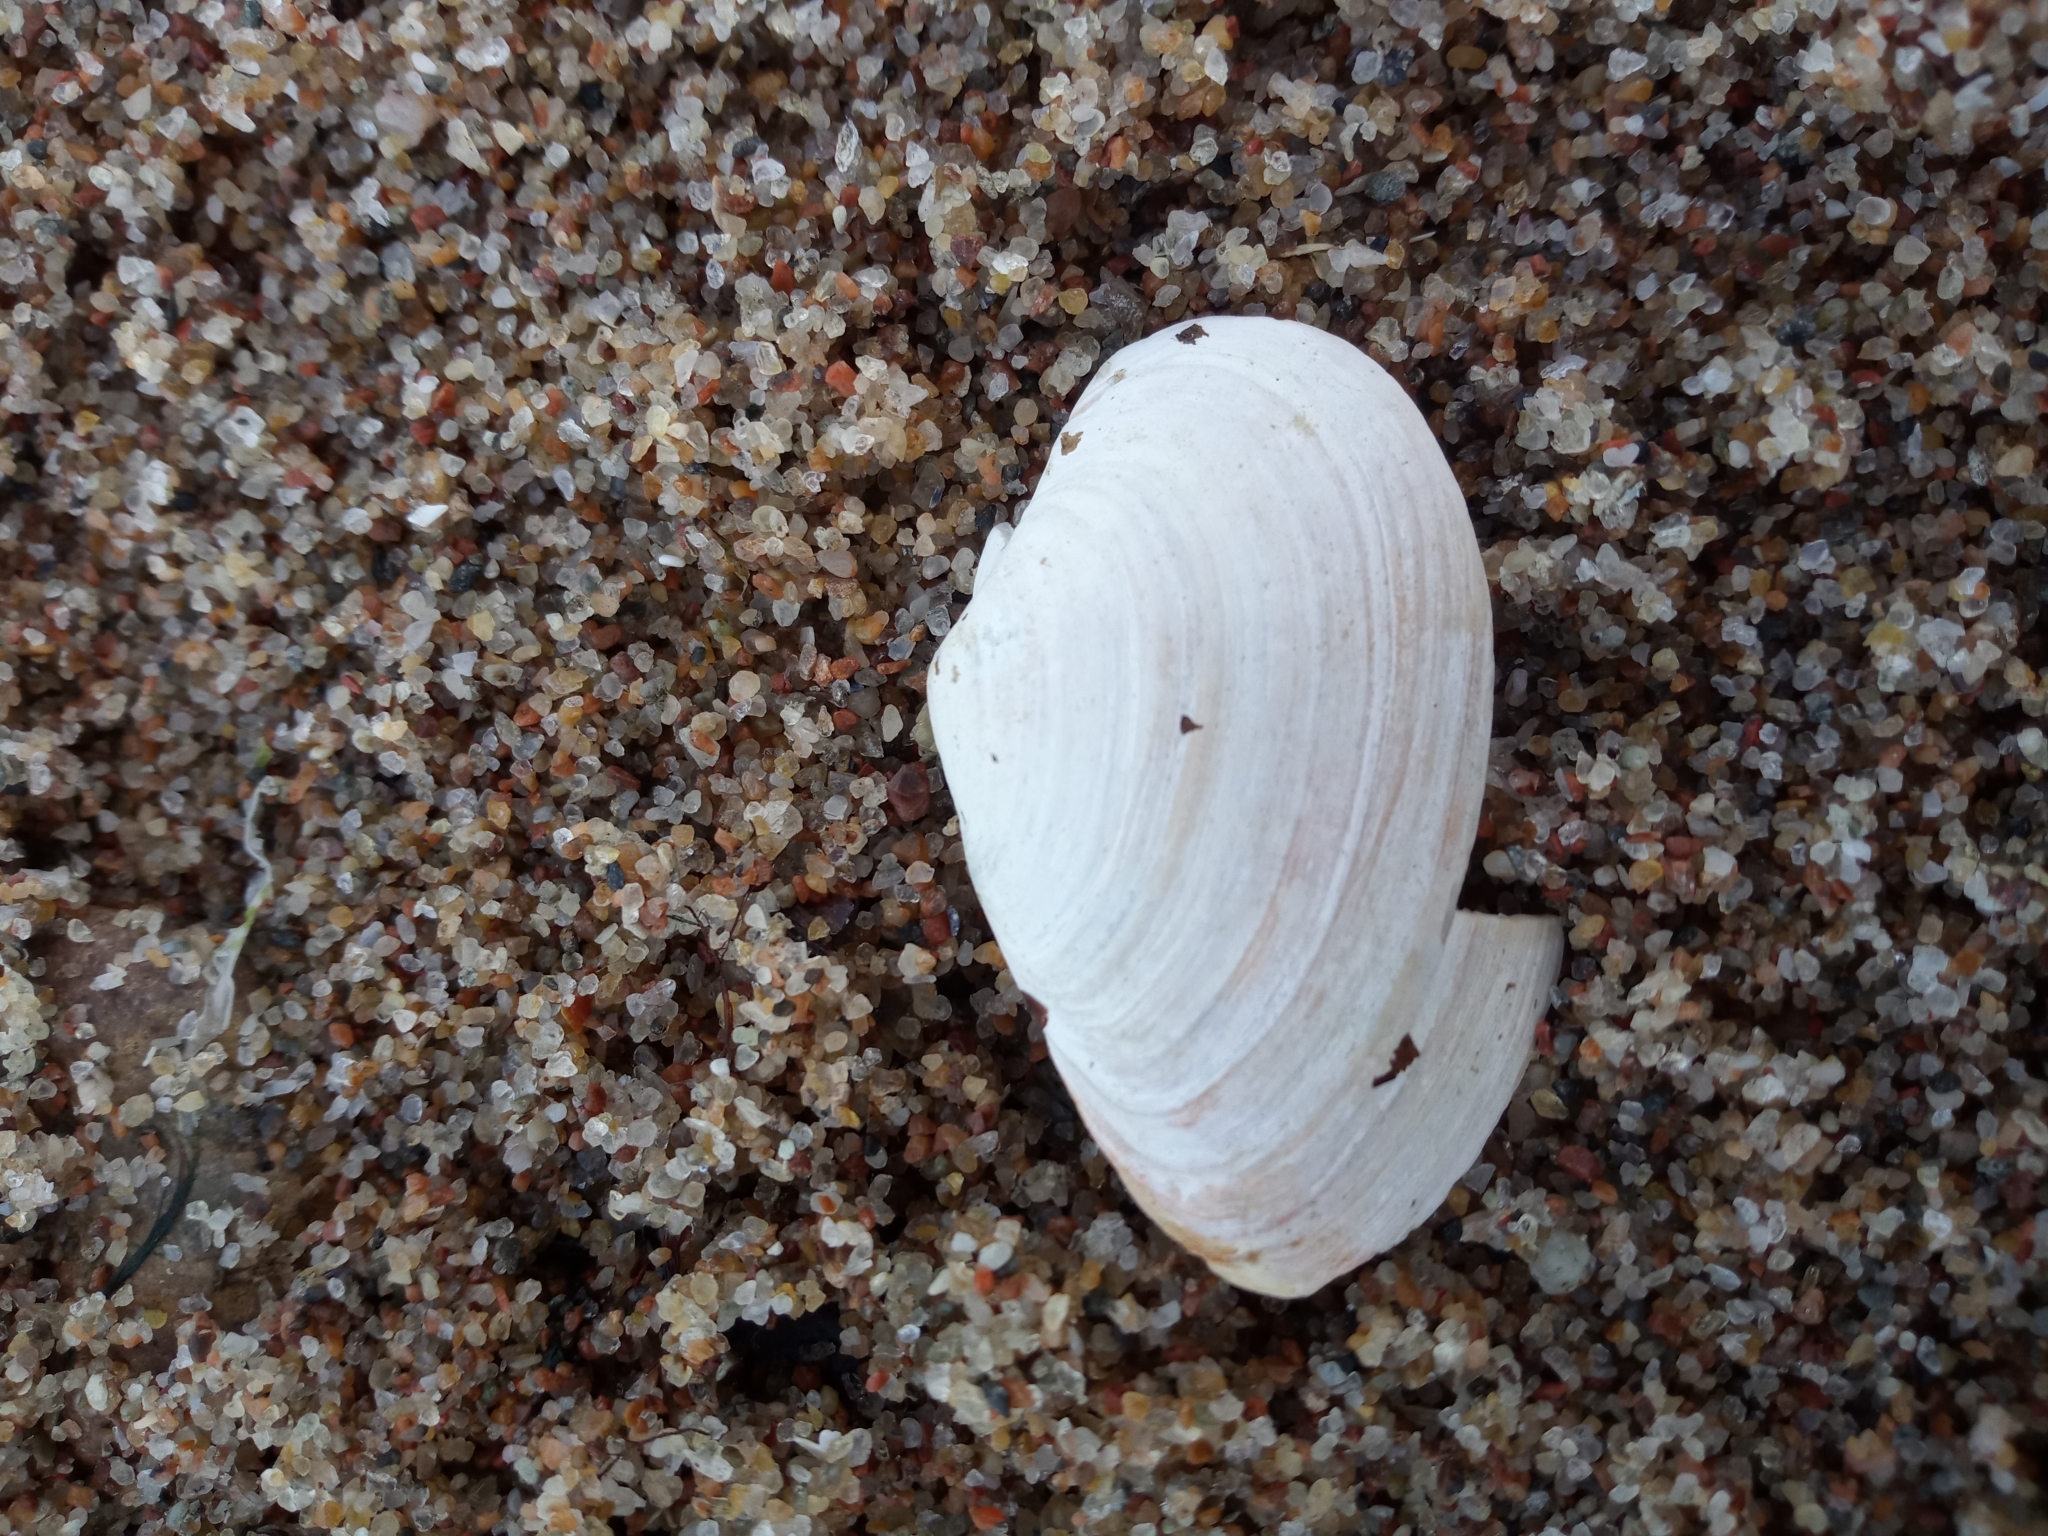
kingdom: Animalia
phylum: Mollusca
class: Bivalvia
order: Myida
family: Myidae
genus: Mya
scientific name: Mya arenaria
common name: Soft-shelled clam
